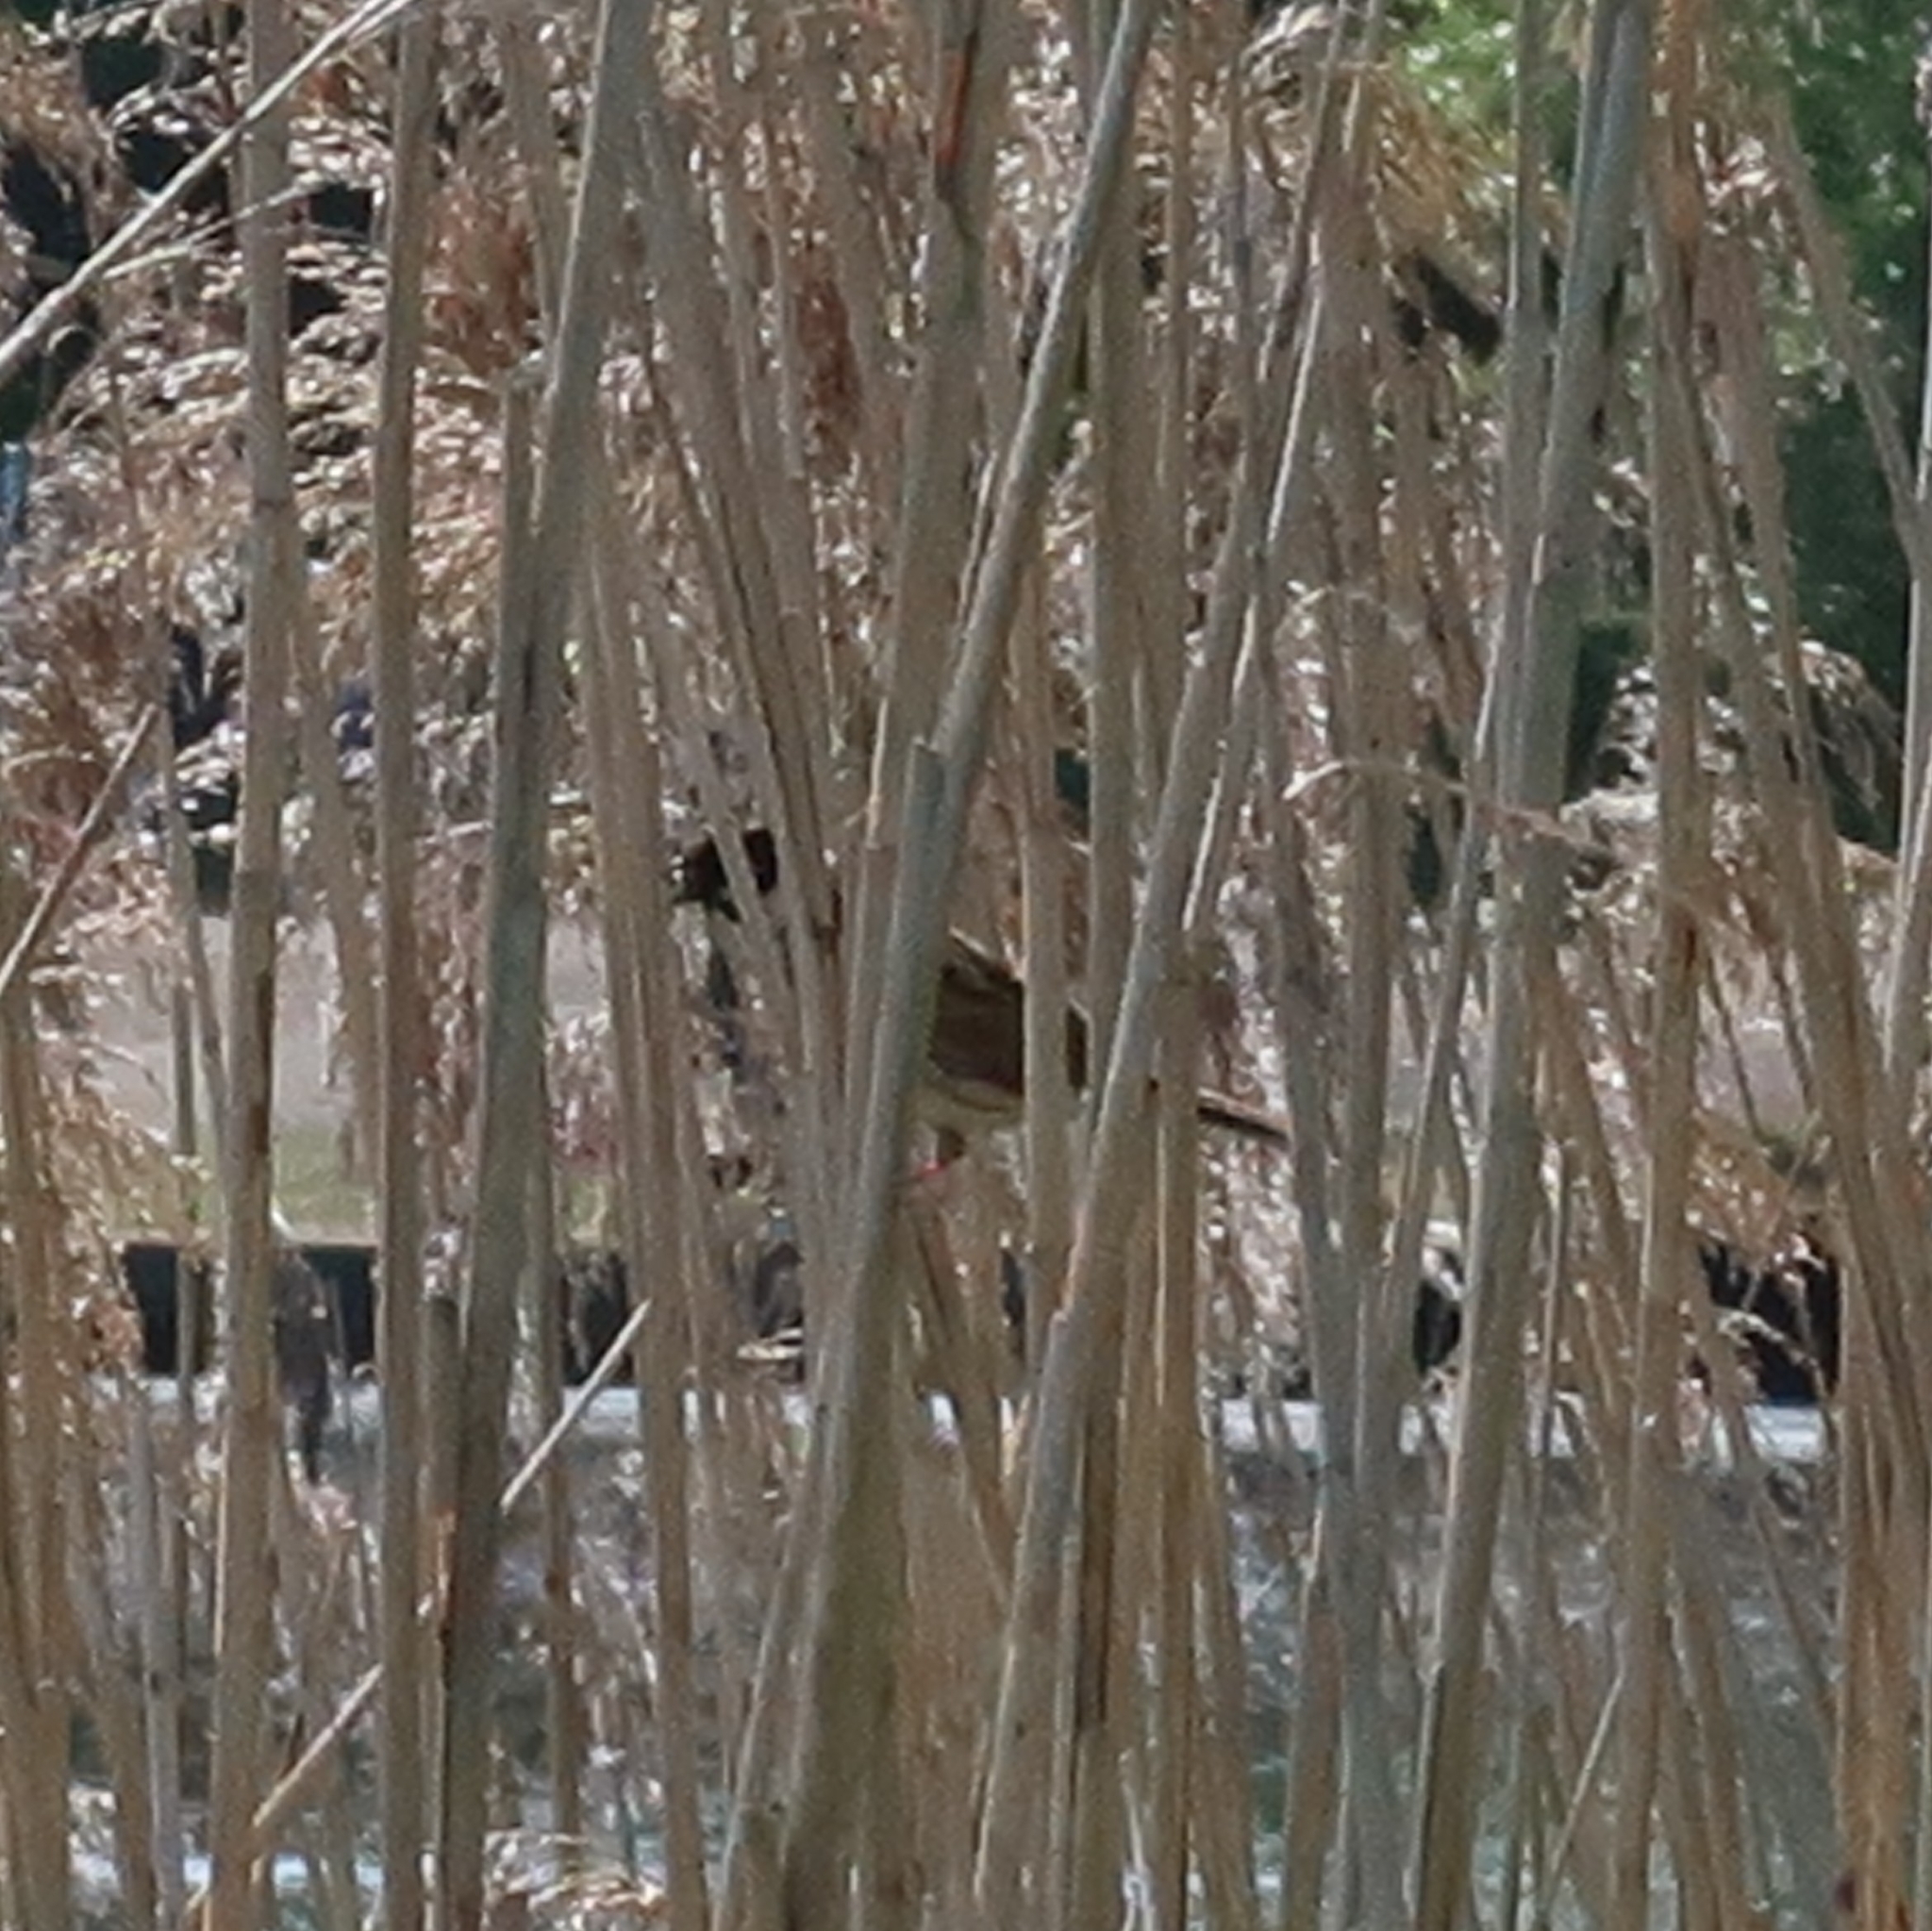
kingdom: Animalia
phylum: Chordata
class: Aves
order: Passeriformes
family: Emberizidae
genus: Emberiza
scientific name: Emberiza schoeniclus
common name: Reed bunting
